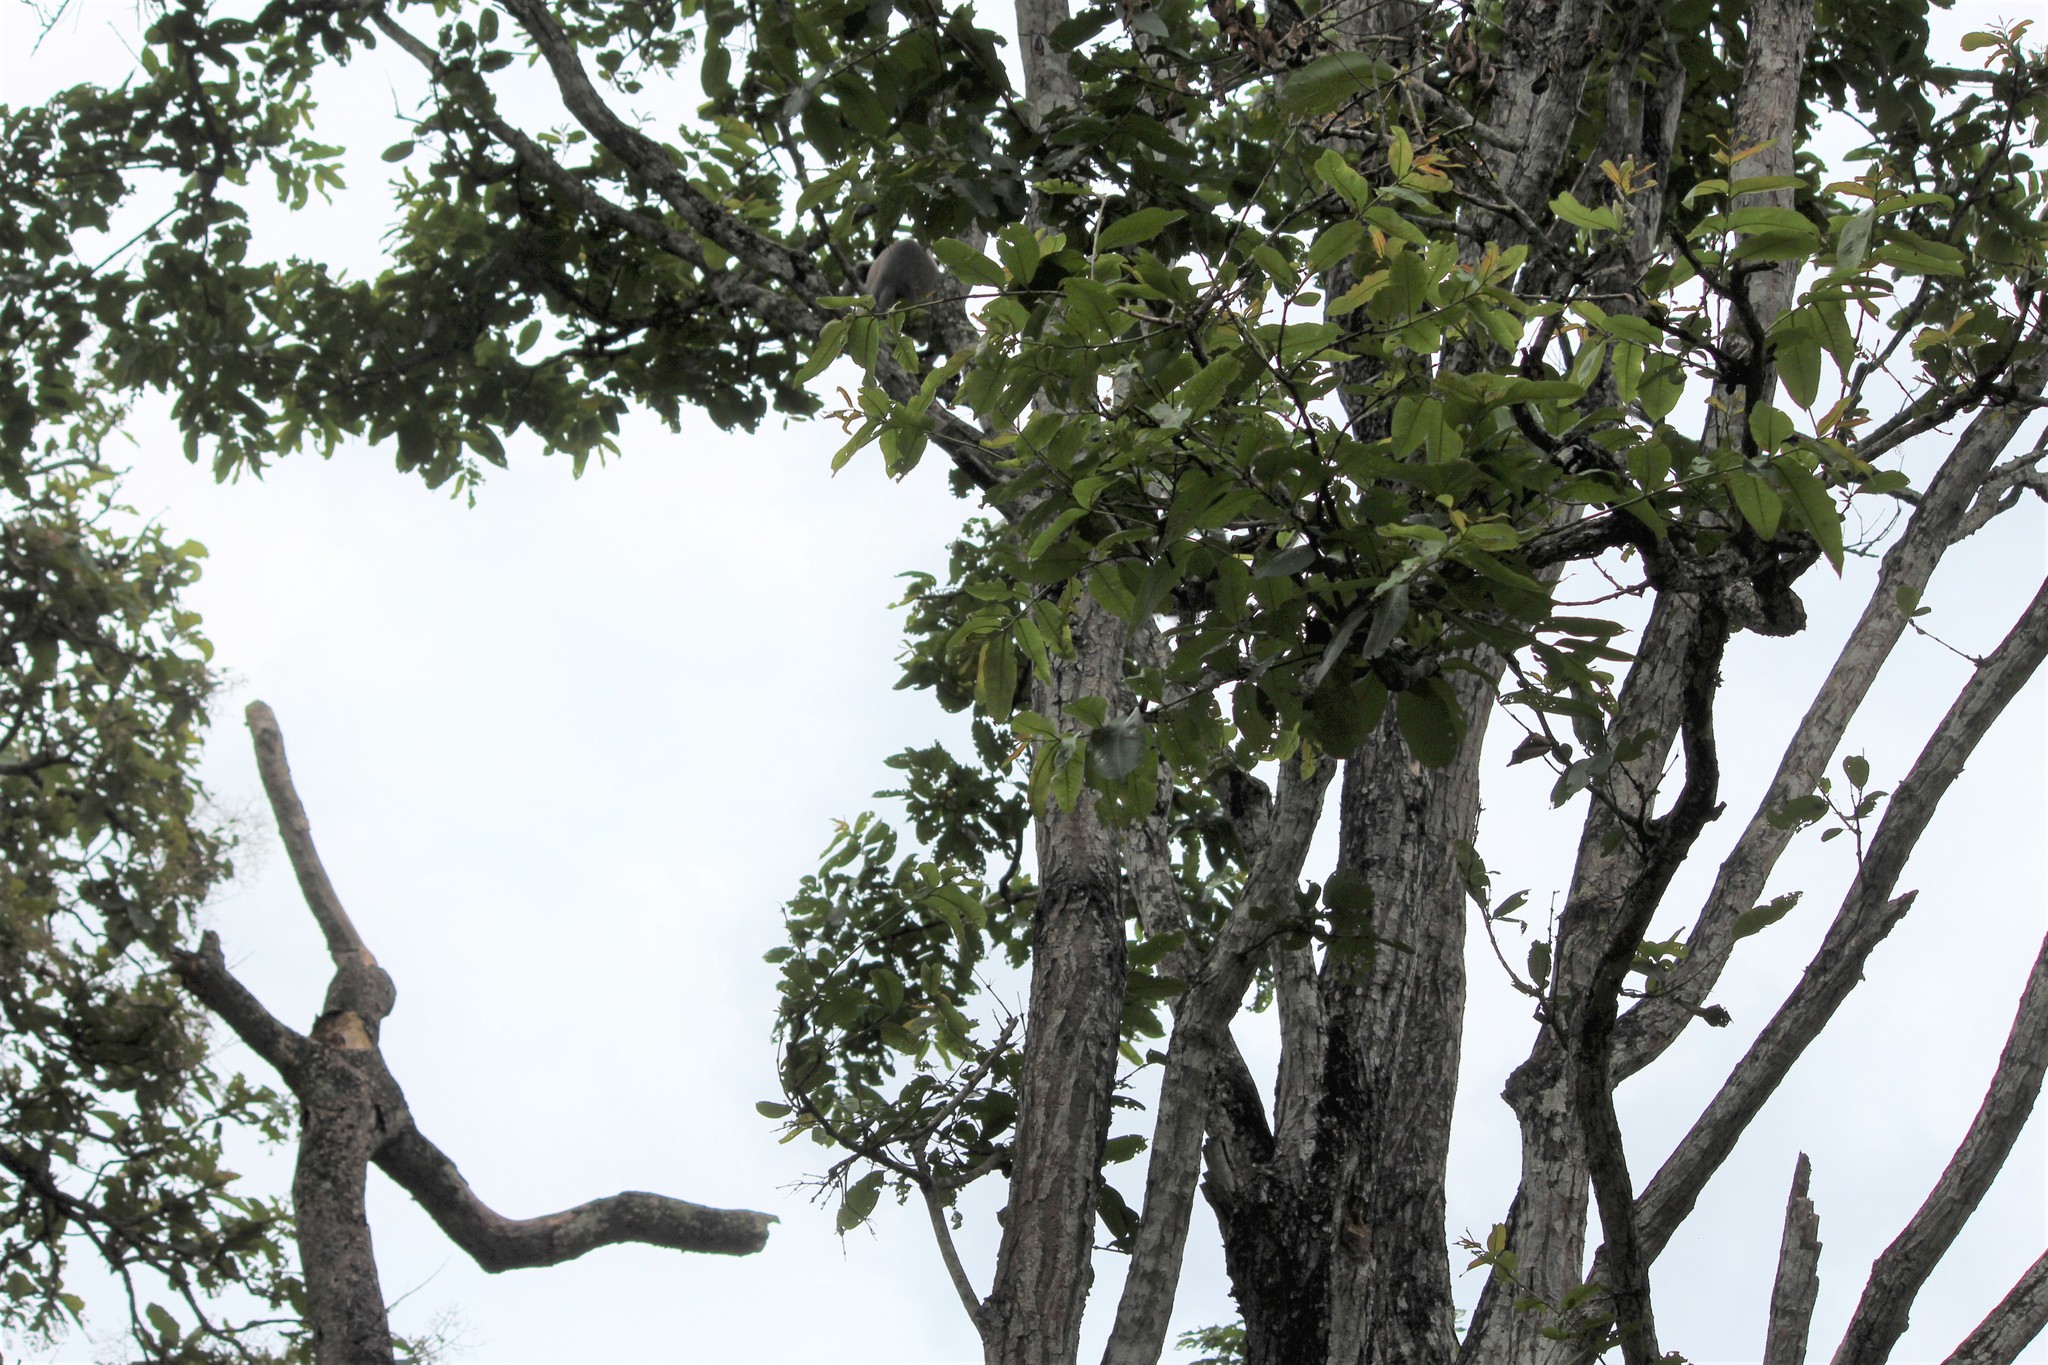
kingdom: Plantae
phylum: Tracheophyta
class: Magnoliopsida
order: Myrtales
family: Combretaceae
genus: Terminalia
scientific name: Terminalia elliptica
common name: Indian-laurel
